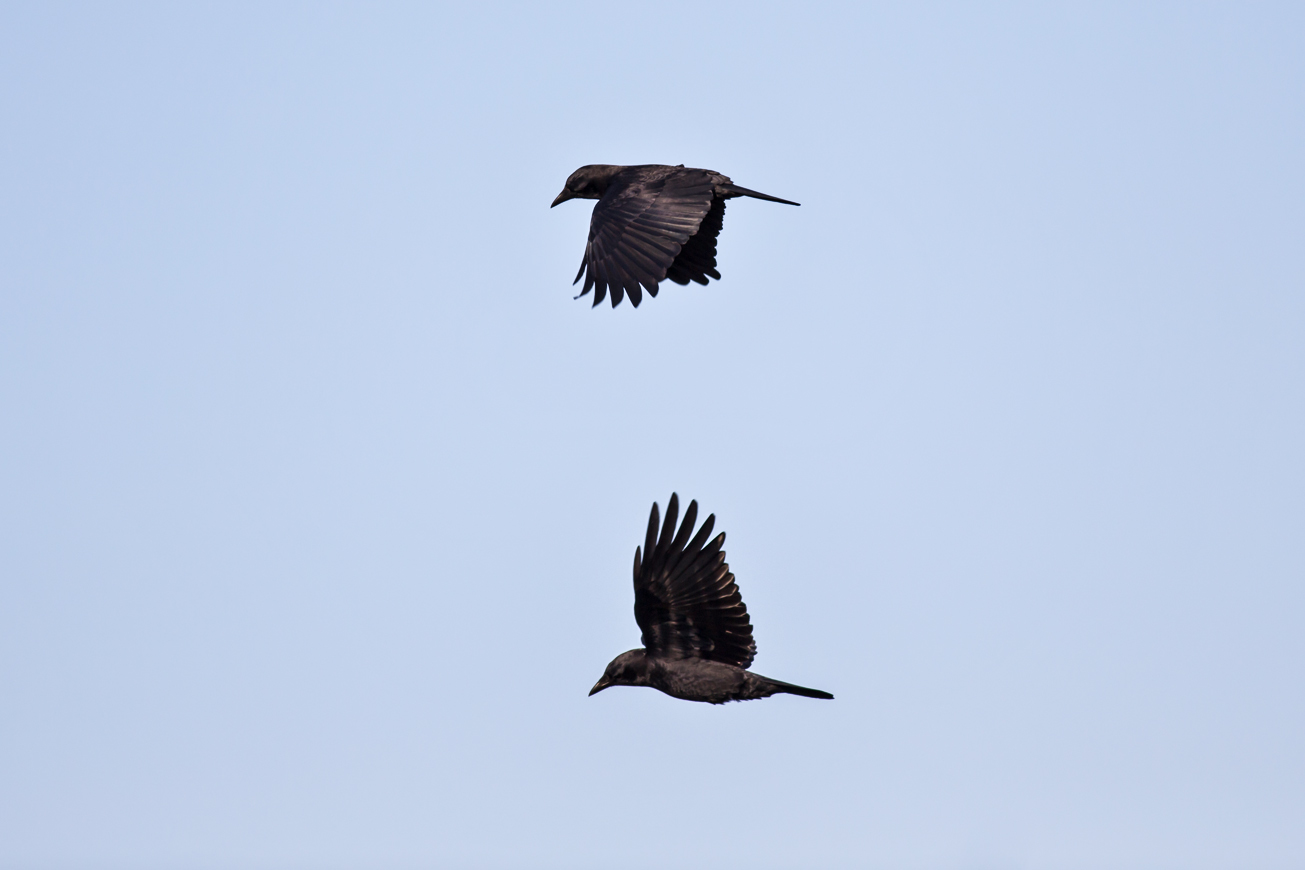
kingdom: Animalia
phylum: Chordata
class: Aves
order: Passeriformes
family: Corvidae
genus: Corvus
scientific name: Corvus brachyrhynchos
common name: American crow
